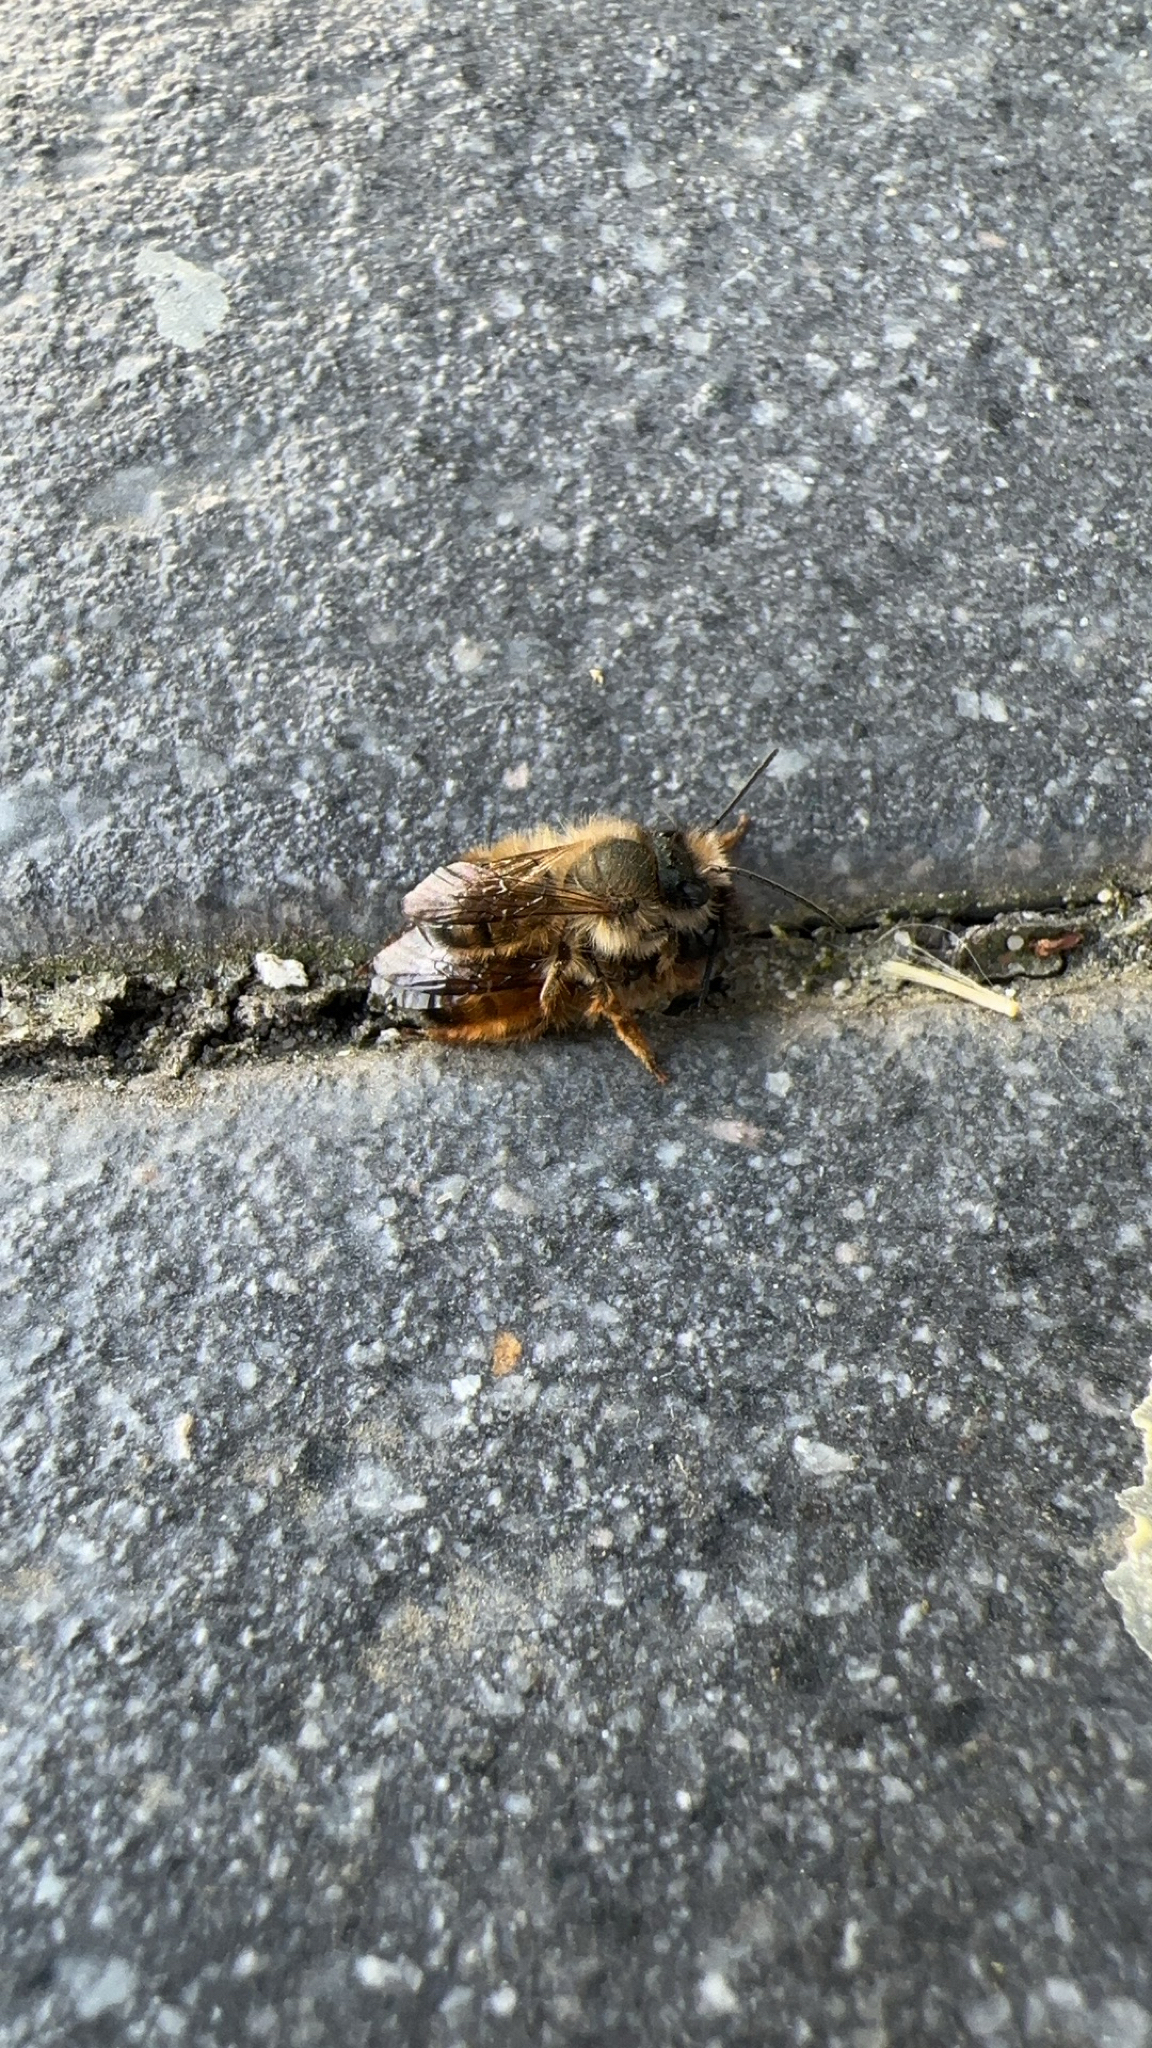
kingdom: Animalia
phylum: Arthropoda
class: Insecta
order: Hymenoptera
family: Megachilidae
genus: Osmia
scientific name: Osmia bicornis
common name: Red mason bee
